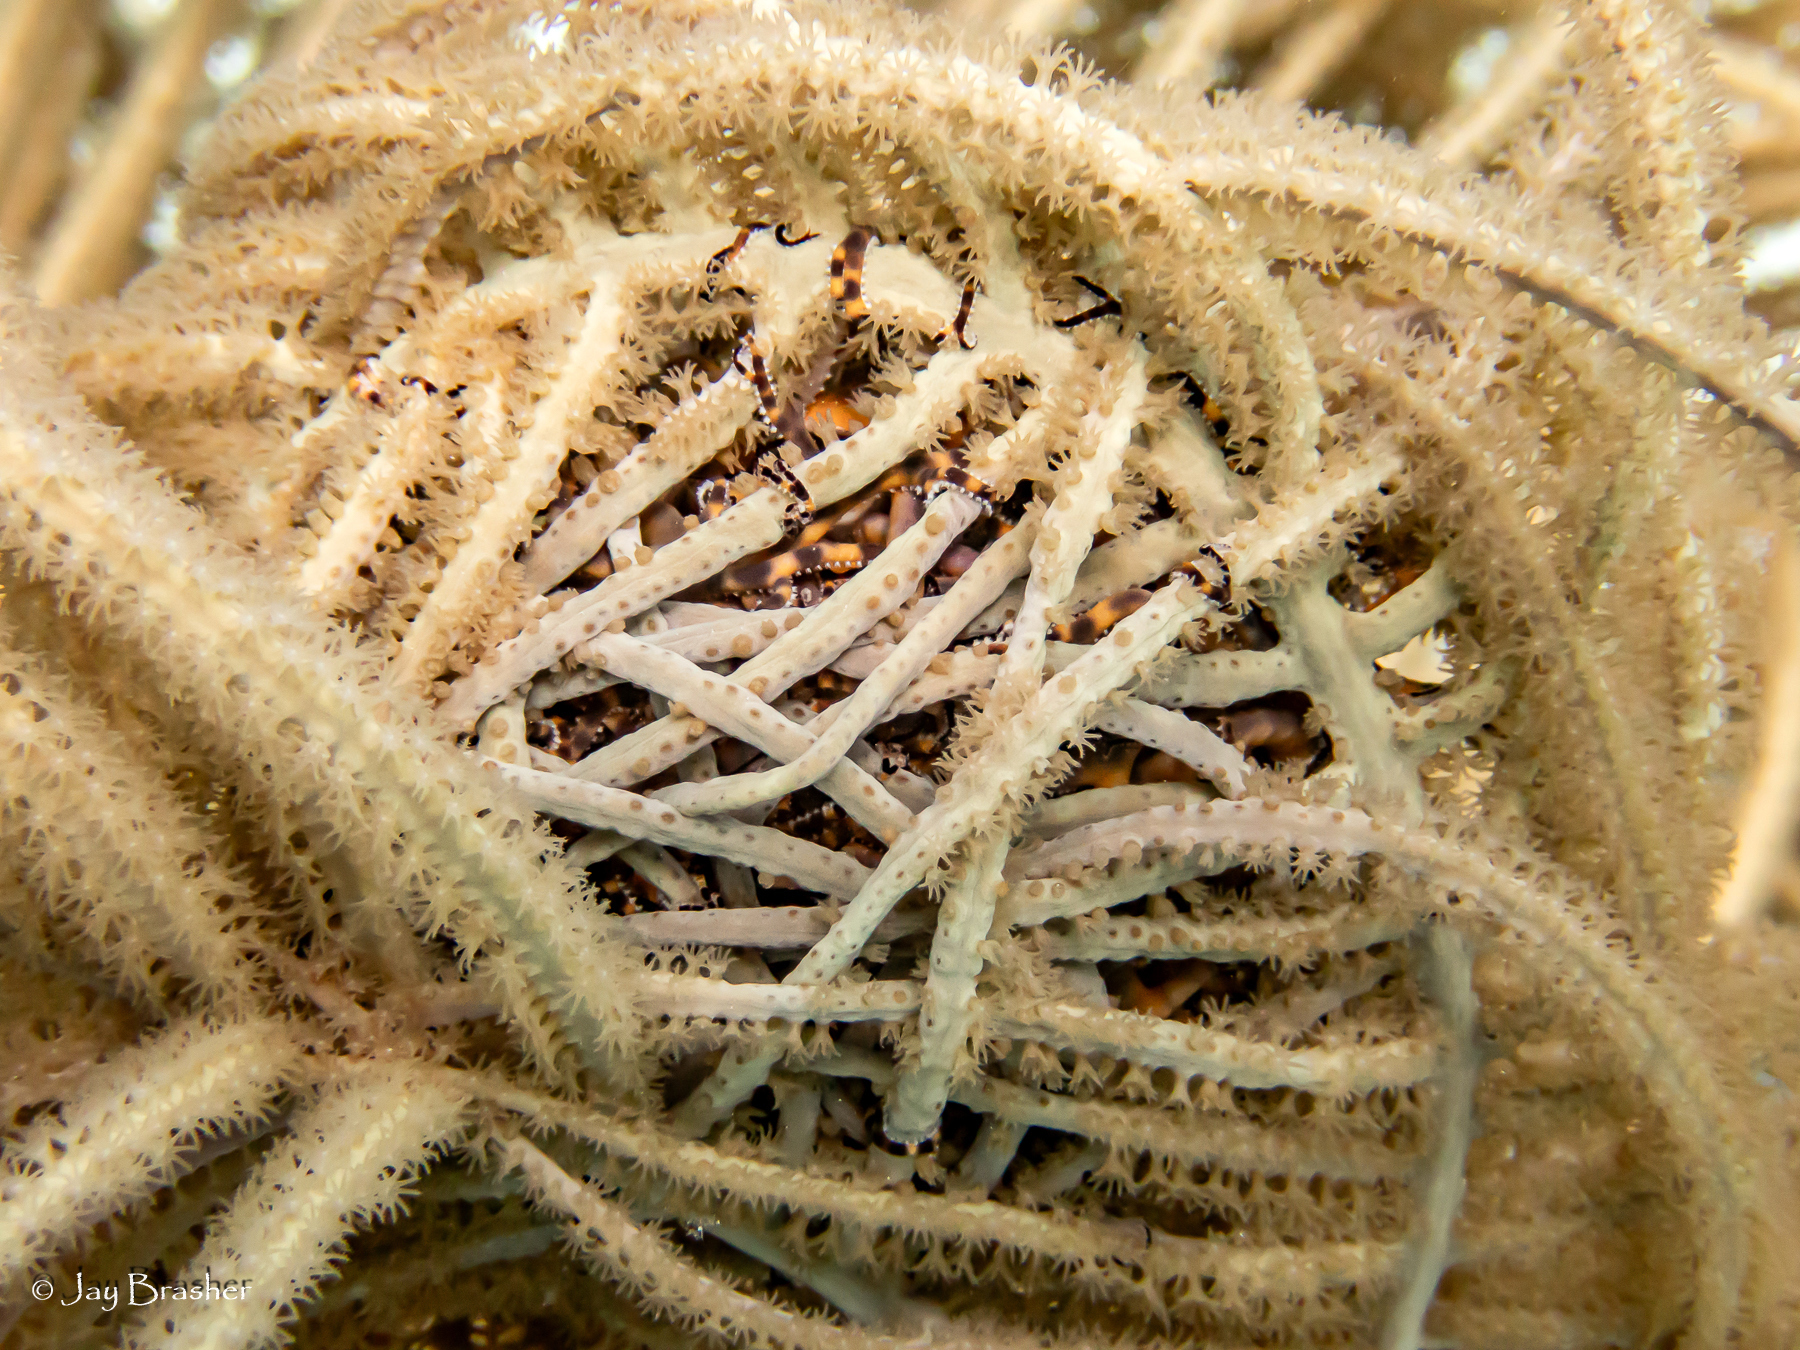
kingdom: Animalia
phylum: Echinodermata
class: Ophiuroidea
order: Euryalida
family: Gorgonocephalidae
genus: Astrophyton
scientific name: Astrophyton muricatum
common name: Basket starfish
